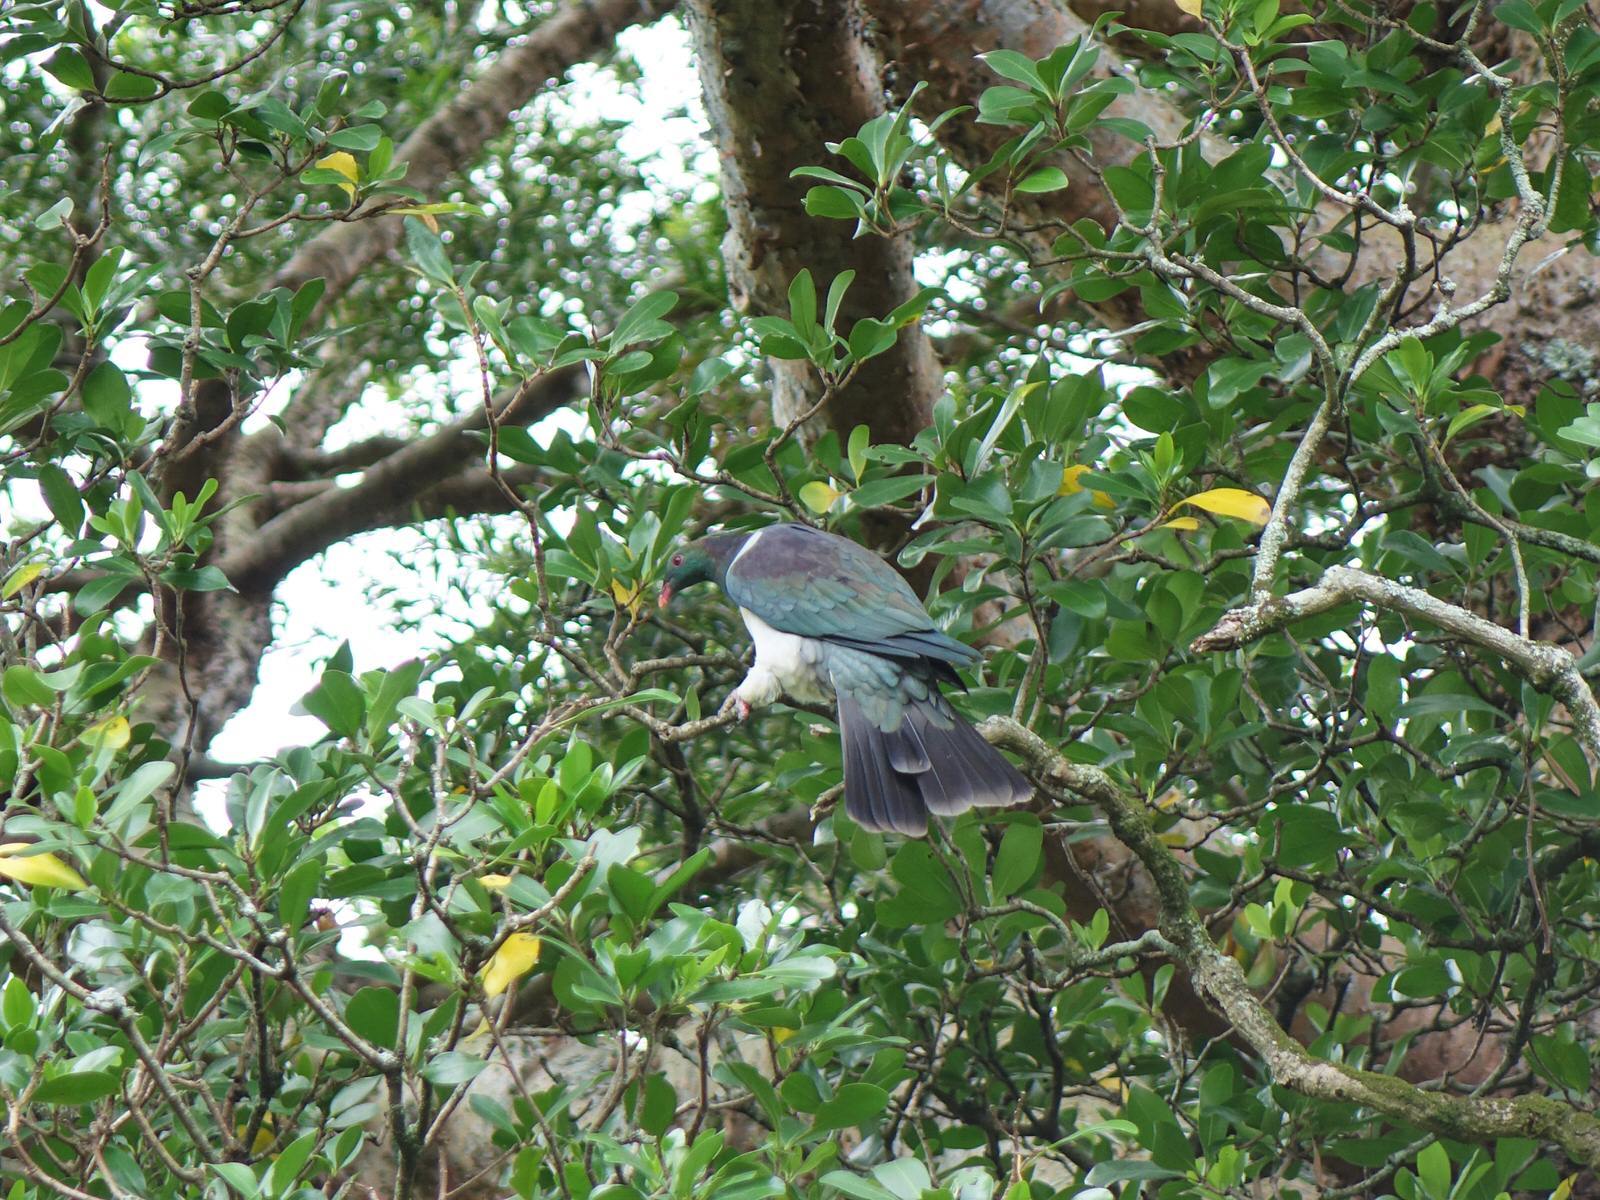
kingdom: Animalia
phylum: Chordata
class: Aves
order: Columbiformes
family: Columbidae
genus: Hemiphaga
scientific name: Hemiphaga novaeseelandiae
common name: New zealand pigeon
